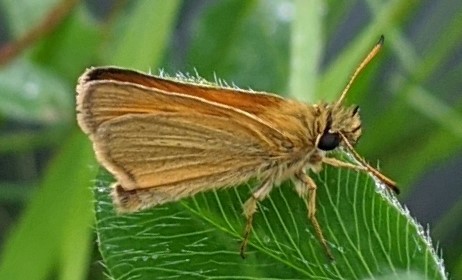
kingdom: Animalia
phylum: Arthropoda
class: Insecta
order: Lepidoptera
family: Hesperiidae
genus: Thymelicus
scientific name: Thymelicus lineola
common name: Essex skipper
